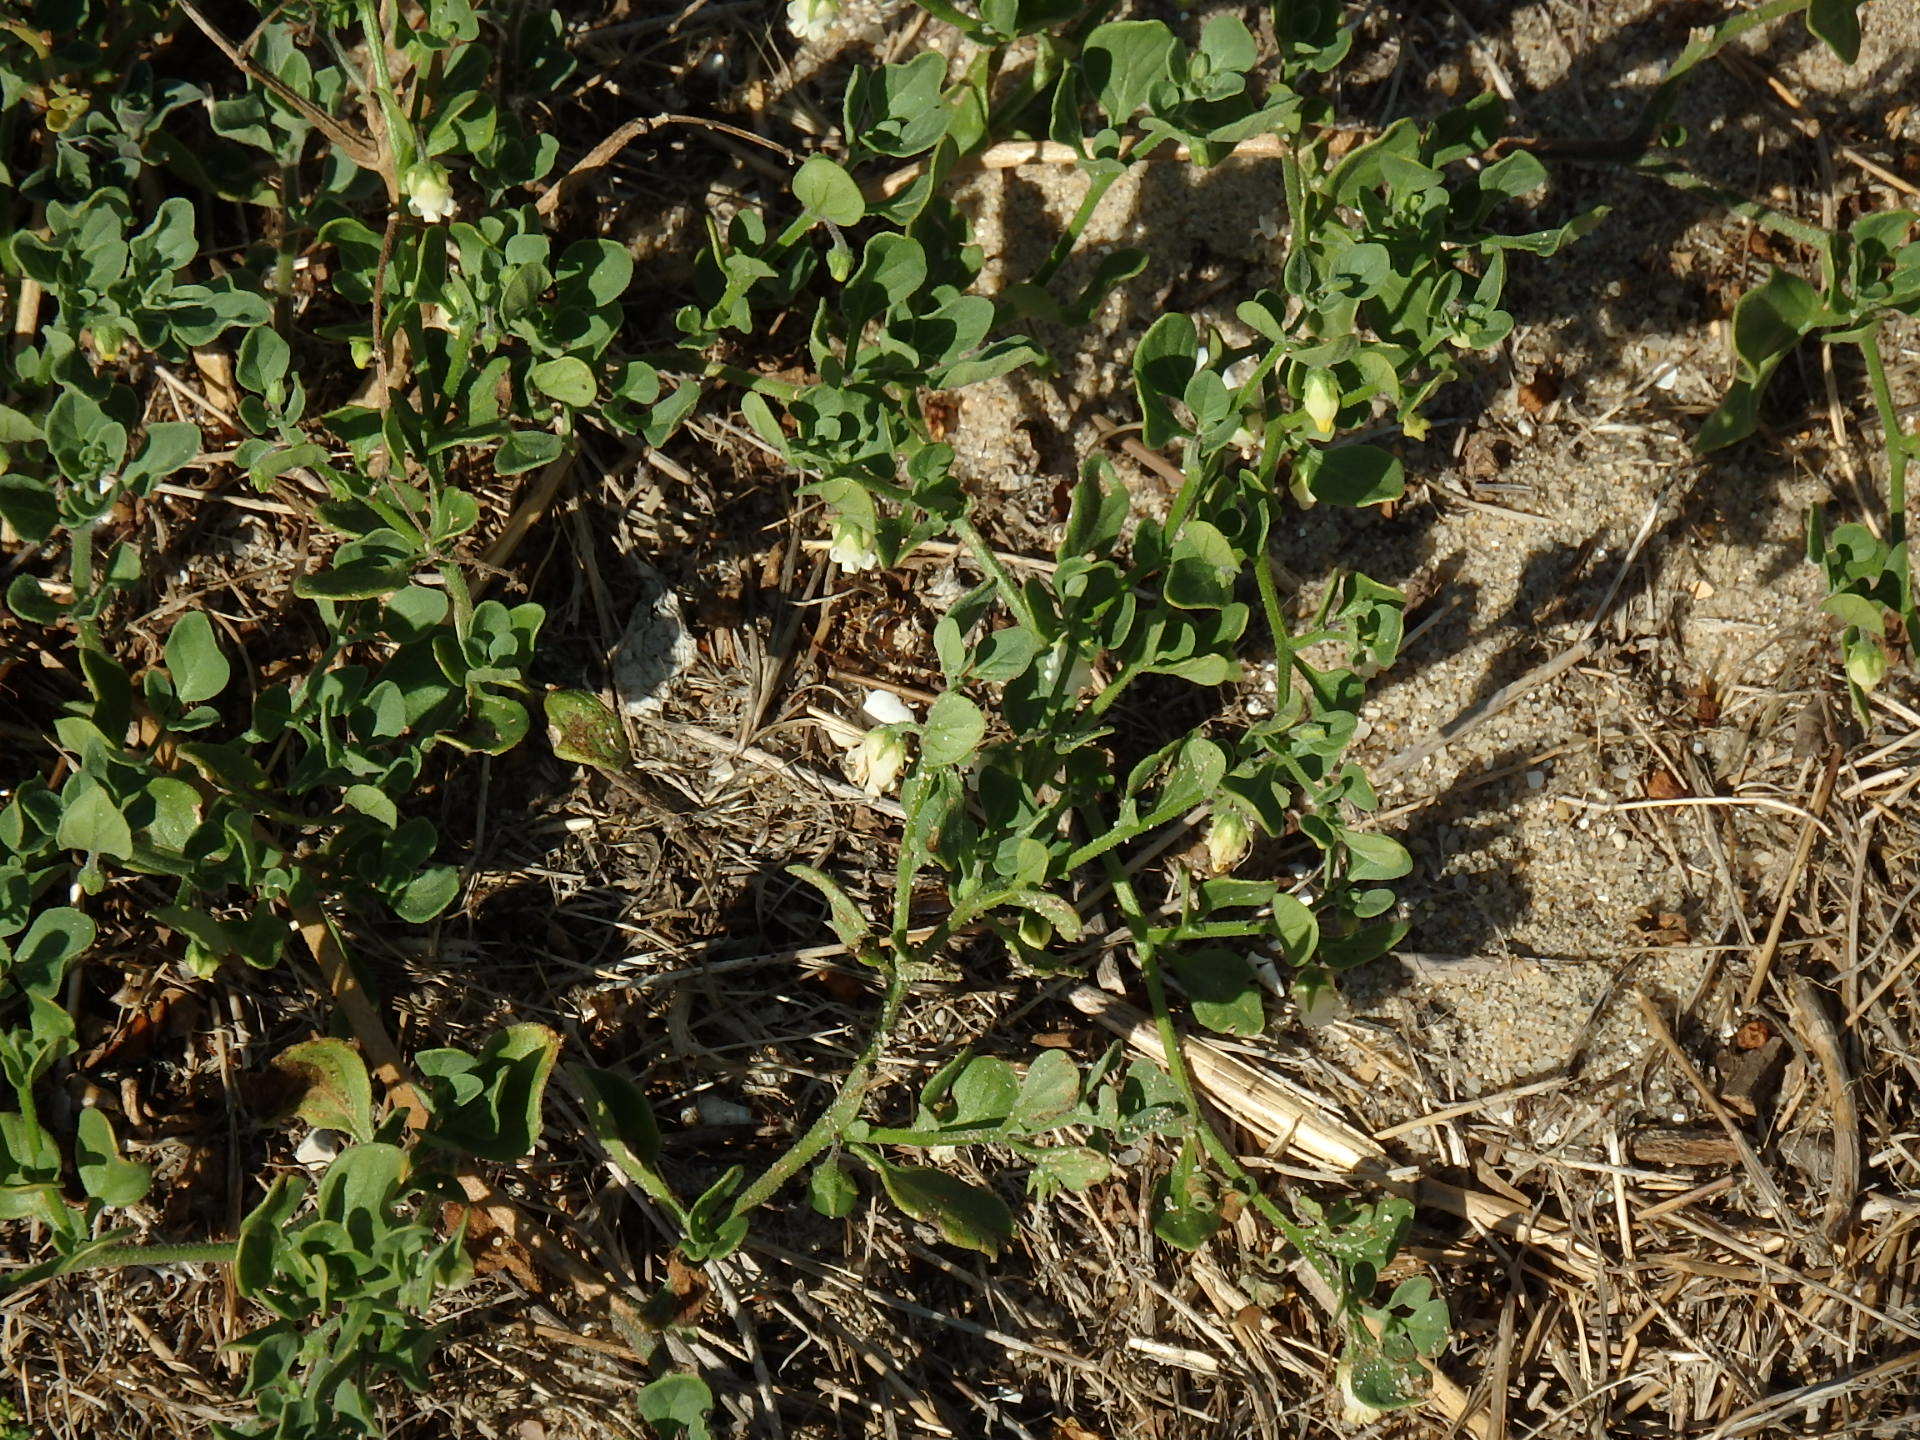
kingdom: Plantae
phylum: Tracheophyta
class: Magnoliopsida
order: Solanales
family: Solanaceae
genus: Salpichroa
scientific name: Salpichroa origanifolia
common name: Lily-of-the-valley-vine
